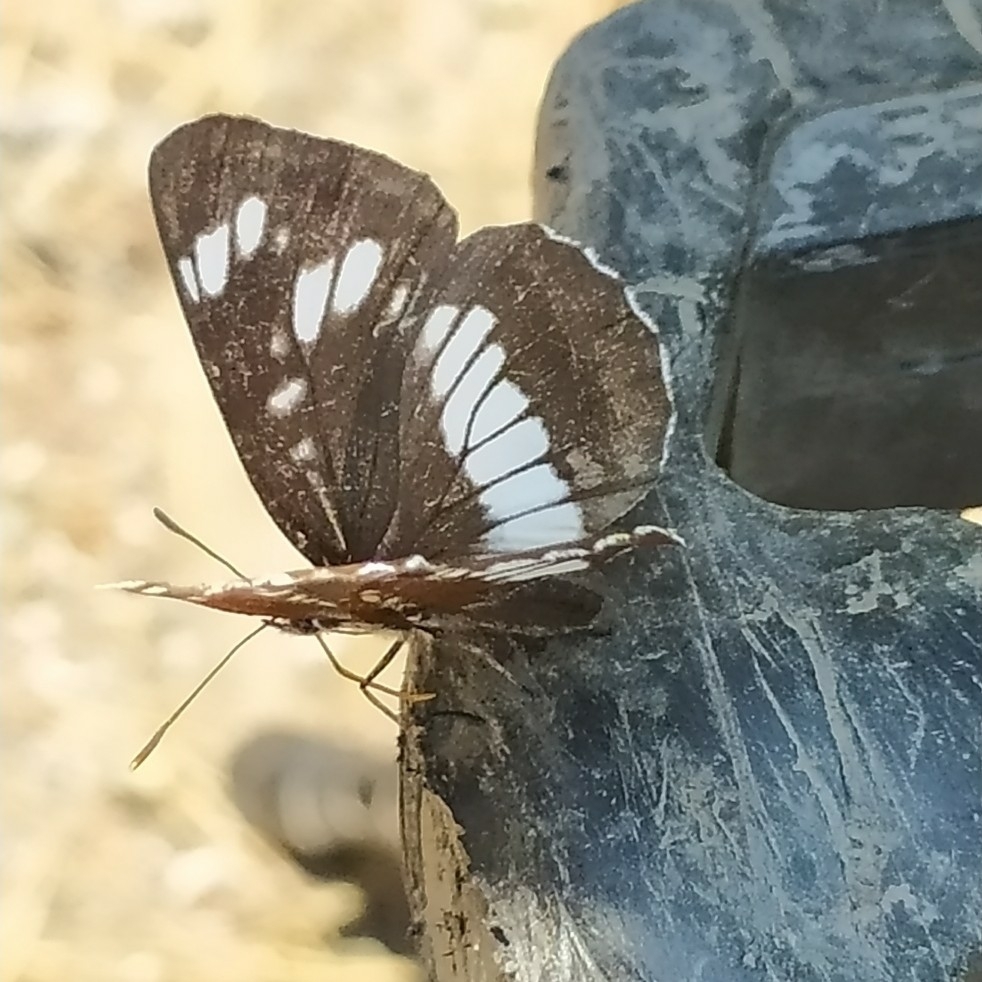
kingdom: Animalia
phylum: Arthropoda
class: Insecta
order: Lepidoptera
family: Nymphalidae
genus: Neptis
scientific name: Neptis rivularis
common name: Hungarian glider
